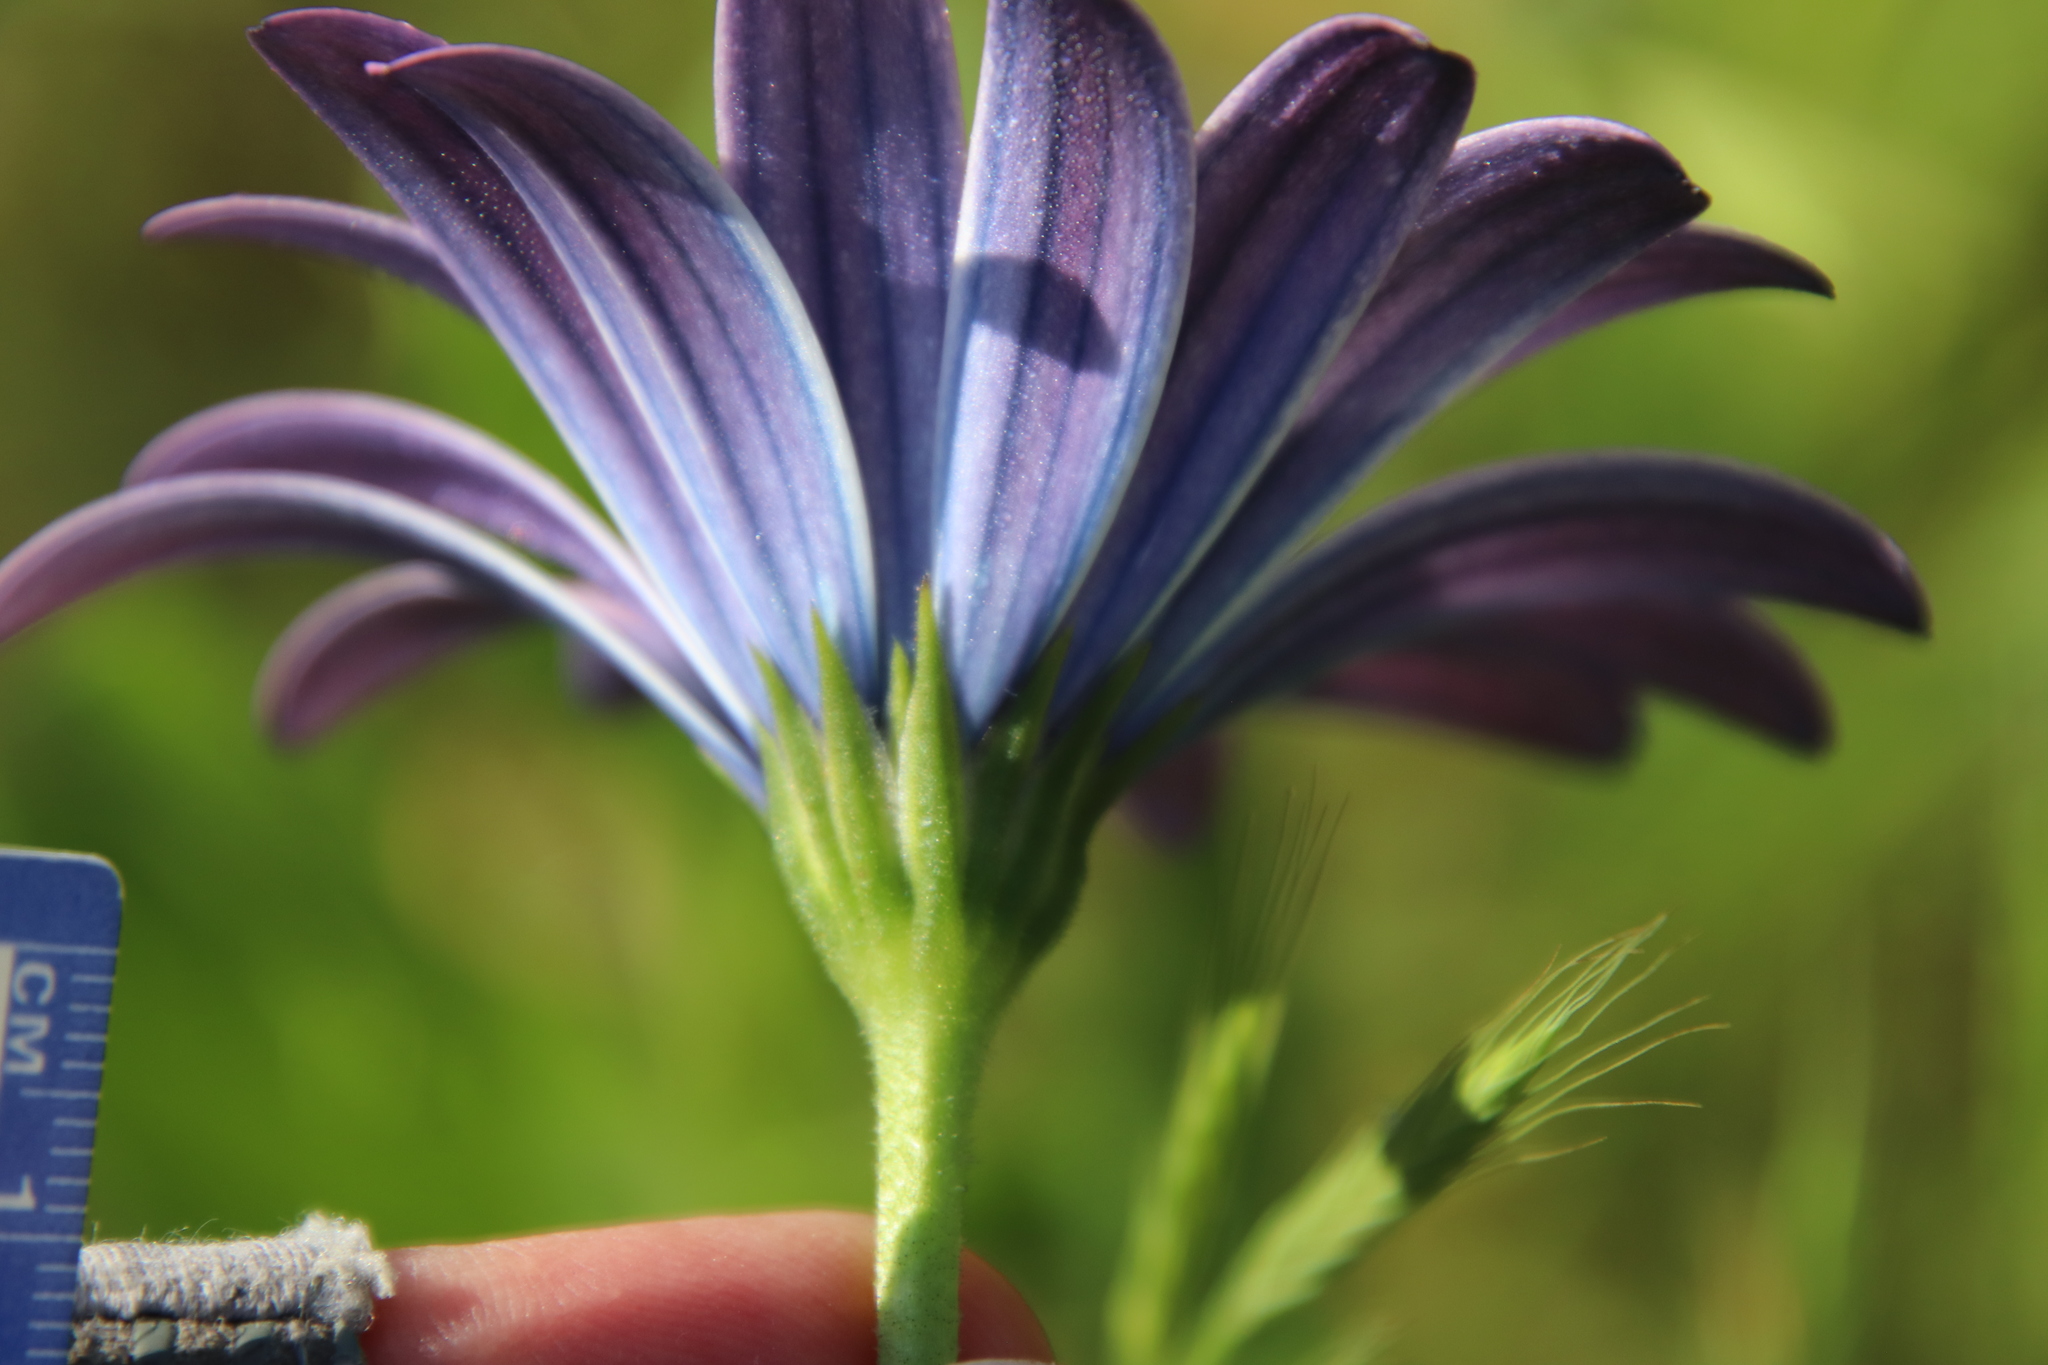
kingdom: Plantae
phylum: Tracheophyta
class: Magnoliopsida
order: Asterales
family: Asteraceae
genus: Dimorphotheca
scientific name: Dimorphotheca ecklonis
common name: Vanstaden's river daisy
